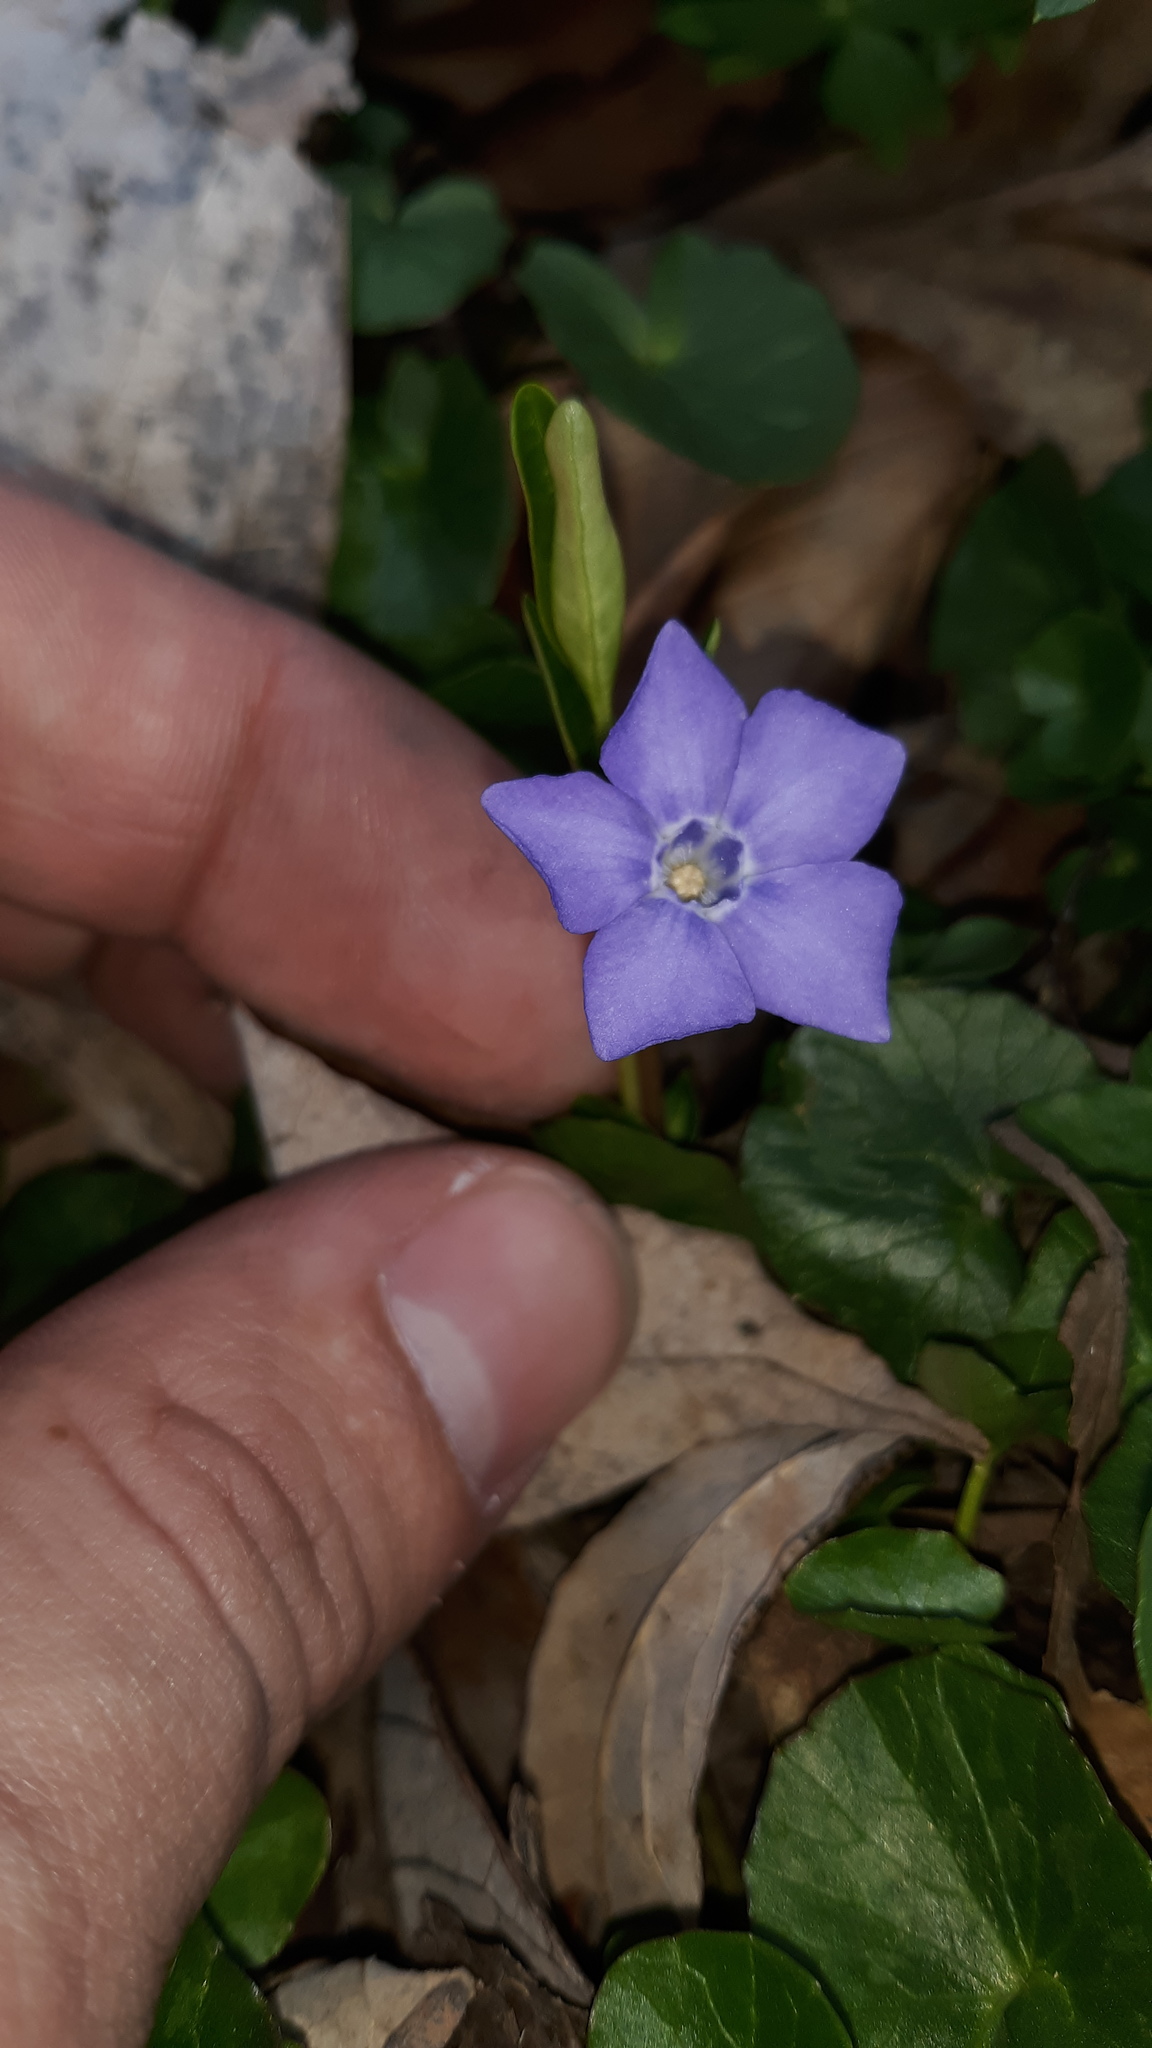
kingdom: Plantae
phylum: Tracheophyta
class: Magnoliopsida
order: Gentianales
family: Apocynaceae
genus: Vinca
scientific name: Vinca minor
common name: Lesser periwinkle
